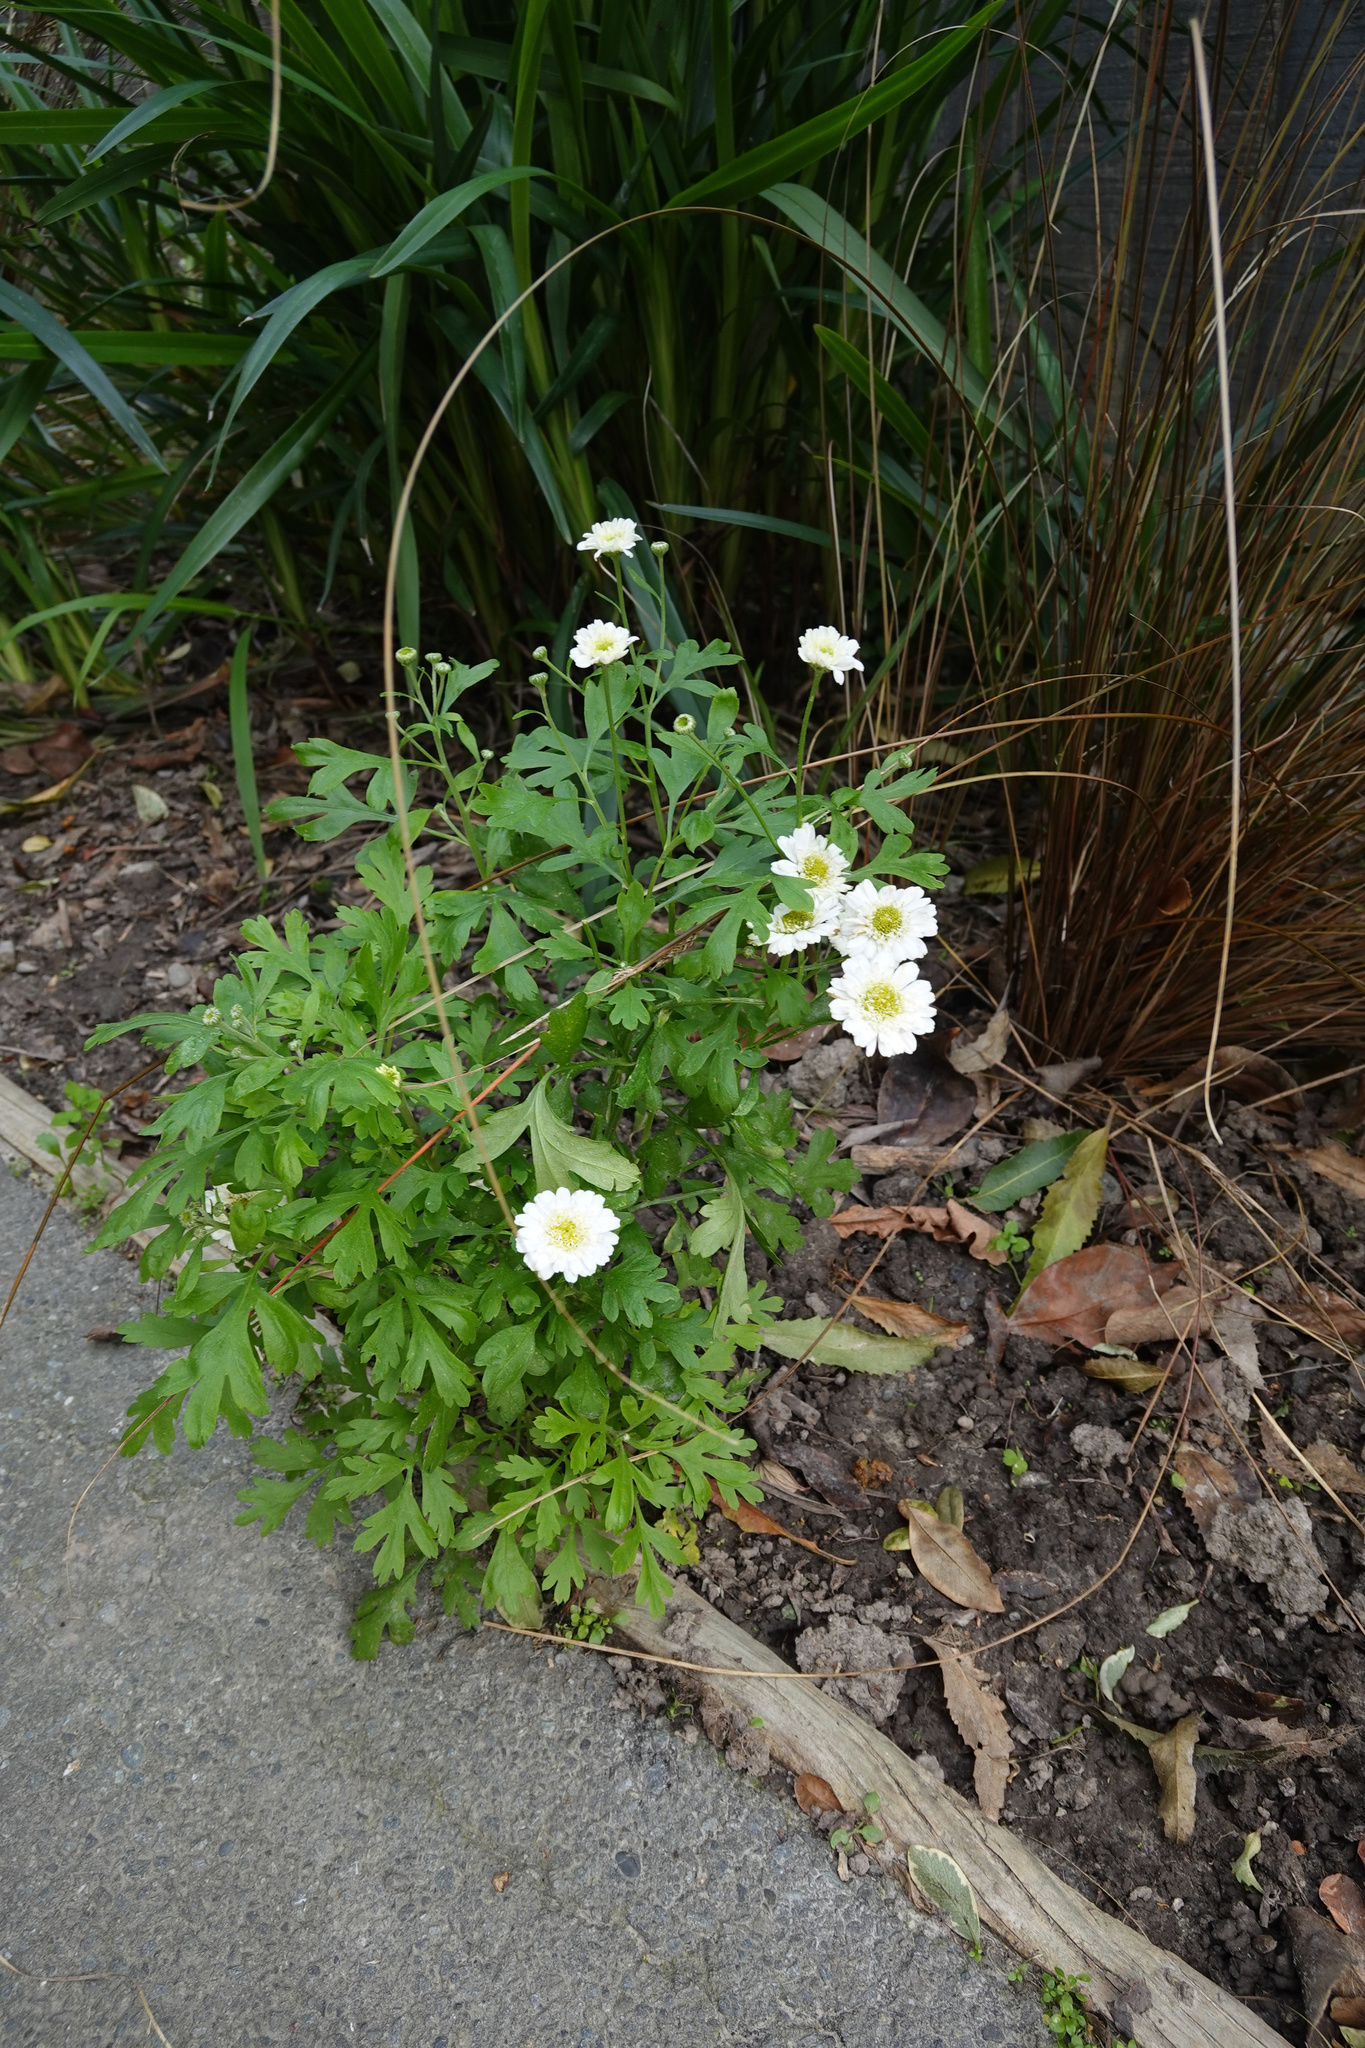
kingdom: Plantae
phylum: Tracheophyta
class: Magnoliopsida
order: Asterales
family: Asteraceae
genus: Tanacetum
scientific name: Tanacetum parthenium
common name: Feverfew
